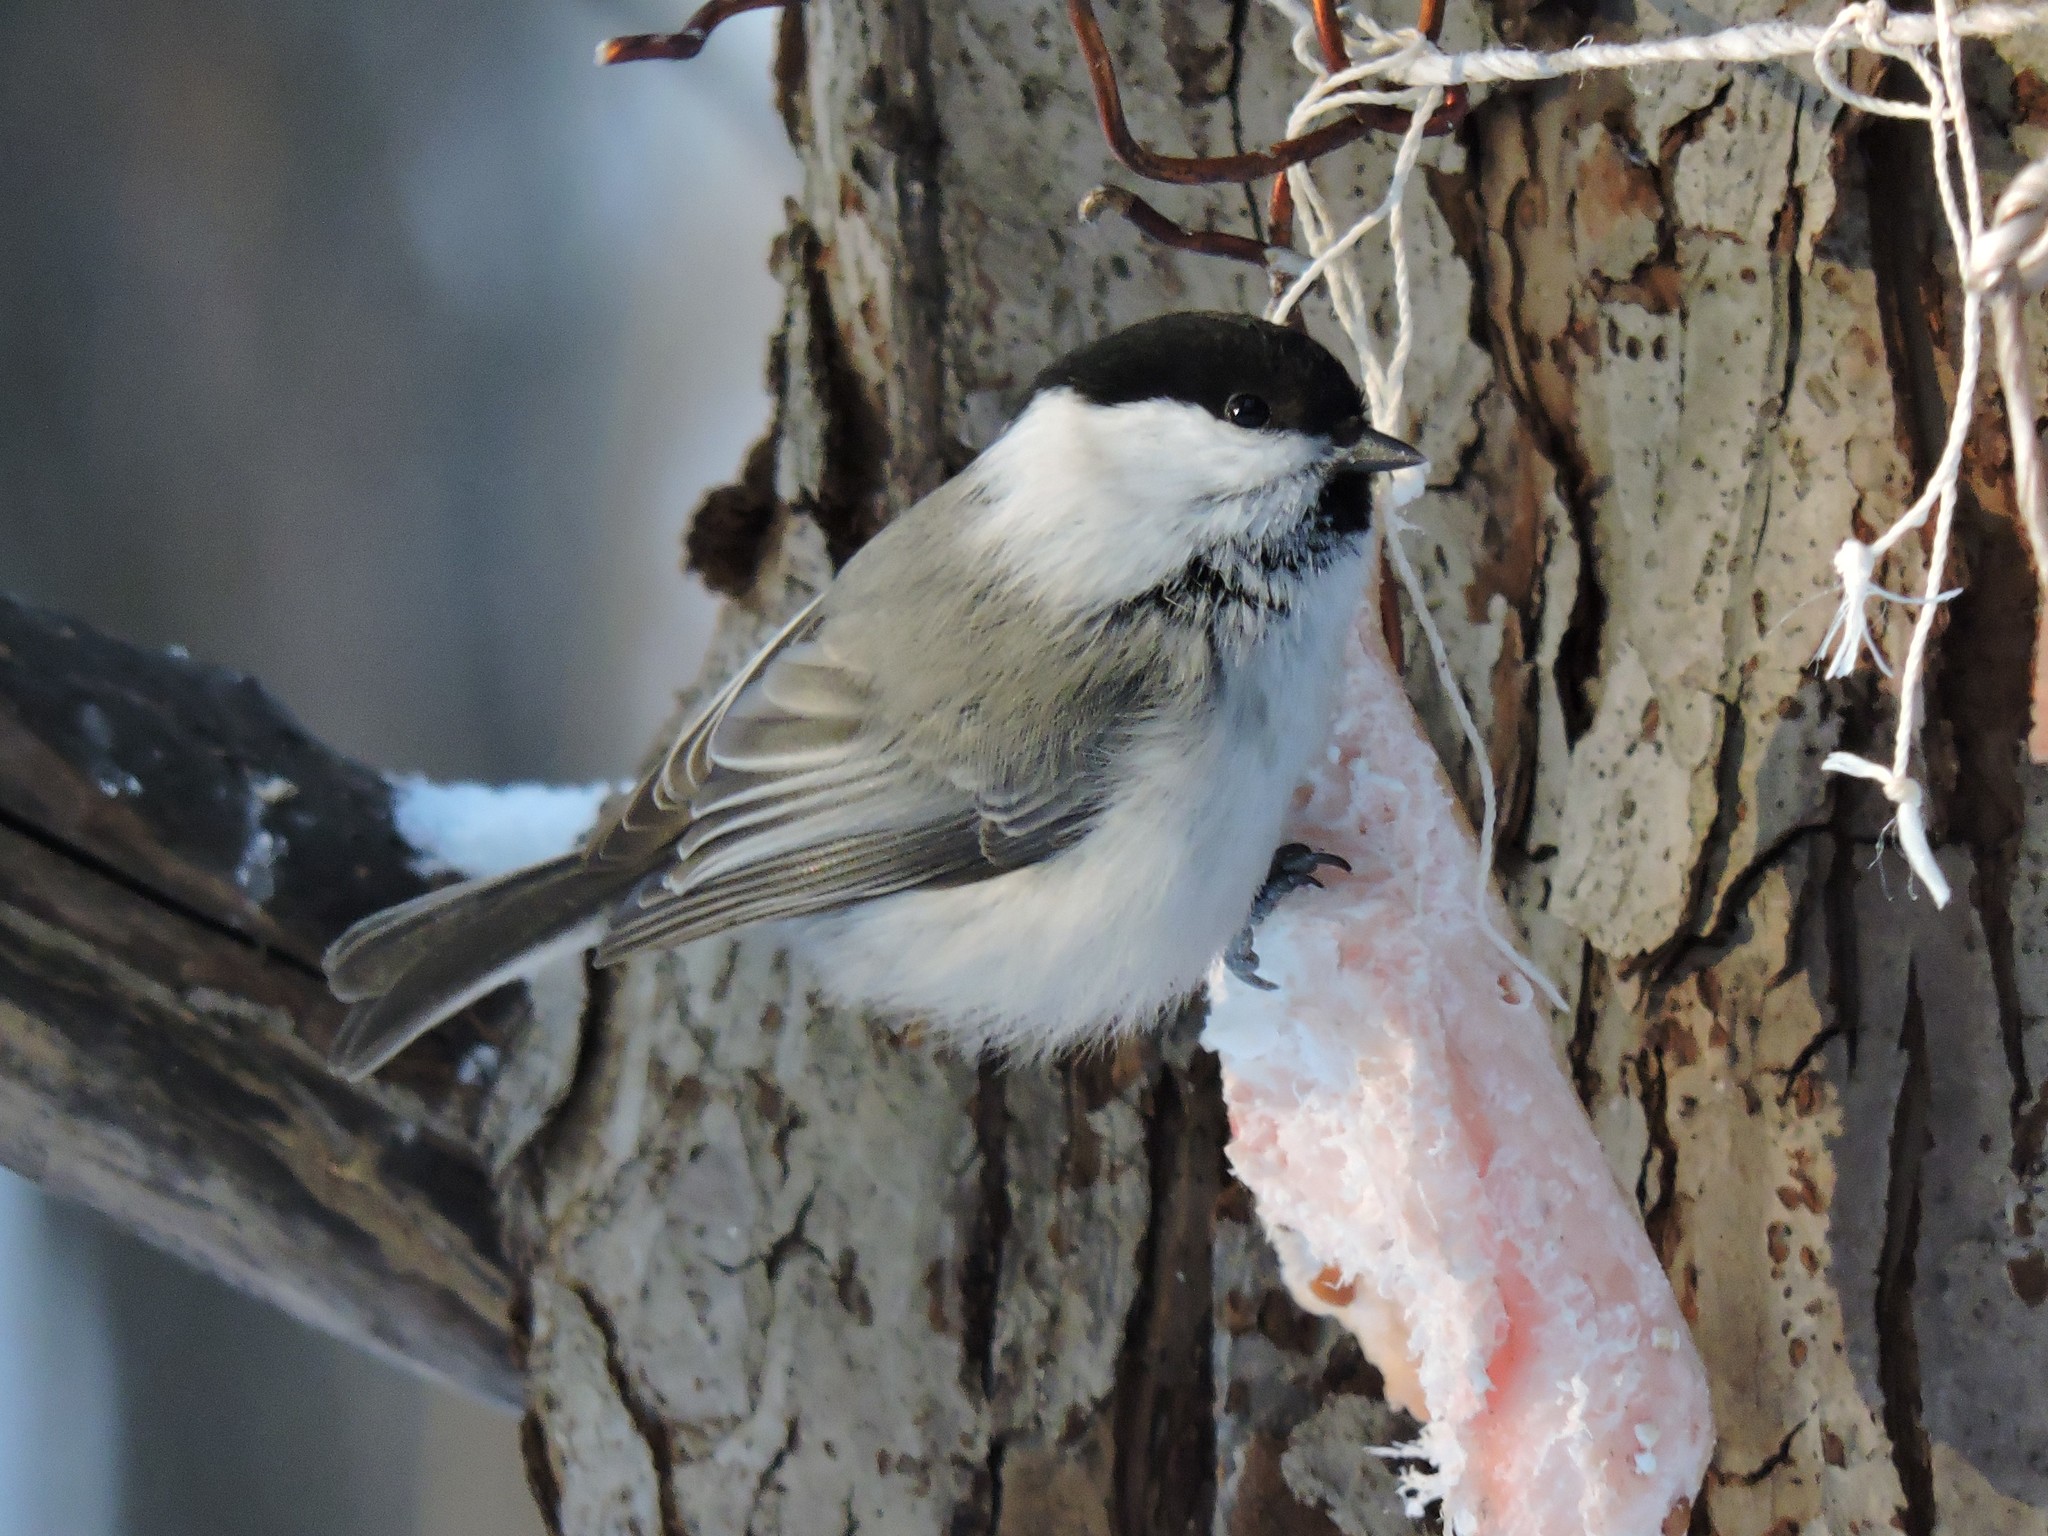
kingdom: Animalia
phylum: Chordata
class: Aves
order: Passeriformes
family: Paridae
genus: Poecile
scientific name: Poecile montanus
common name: Willow tit
